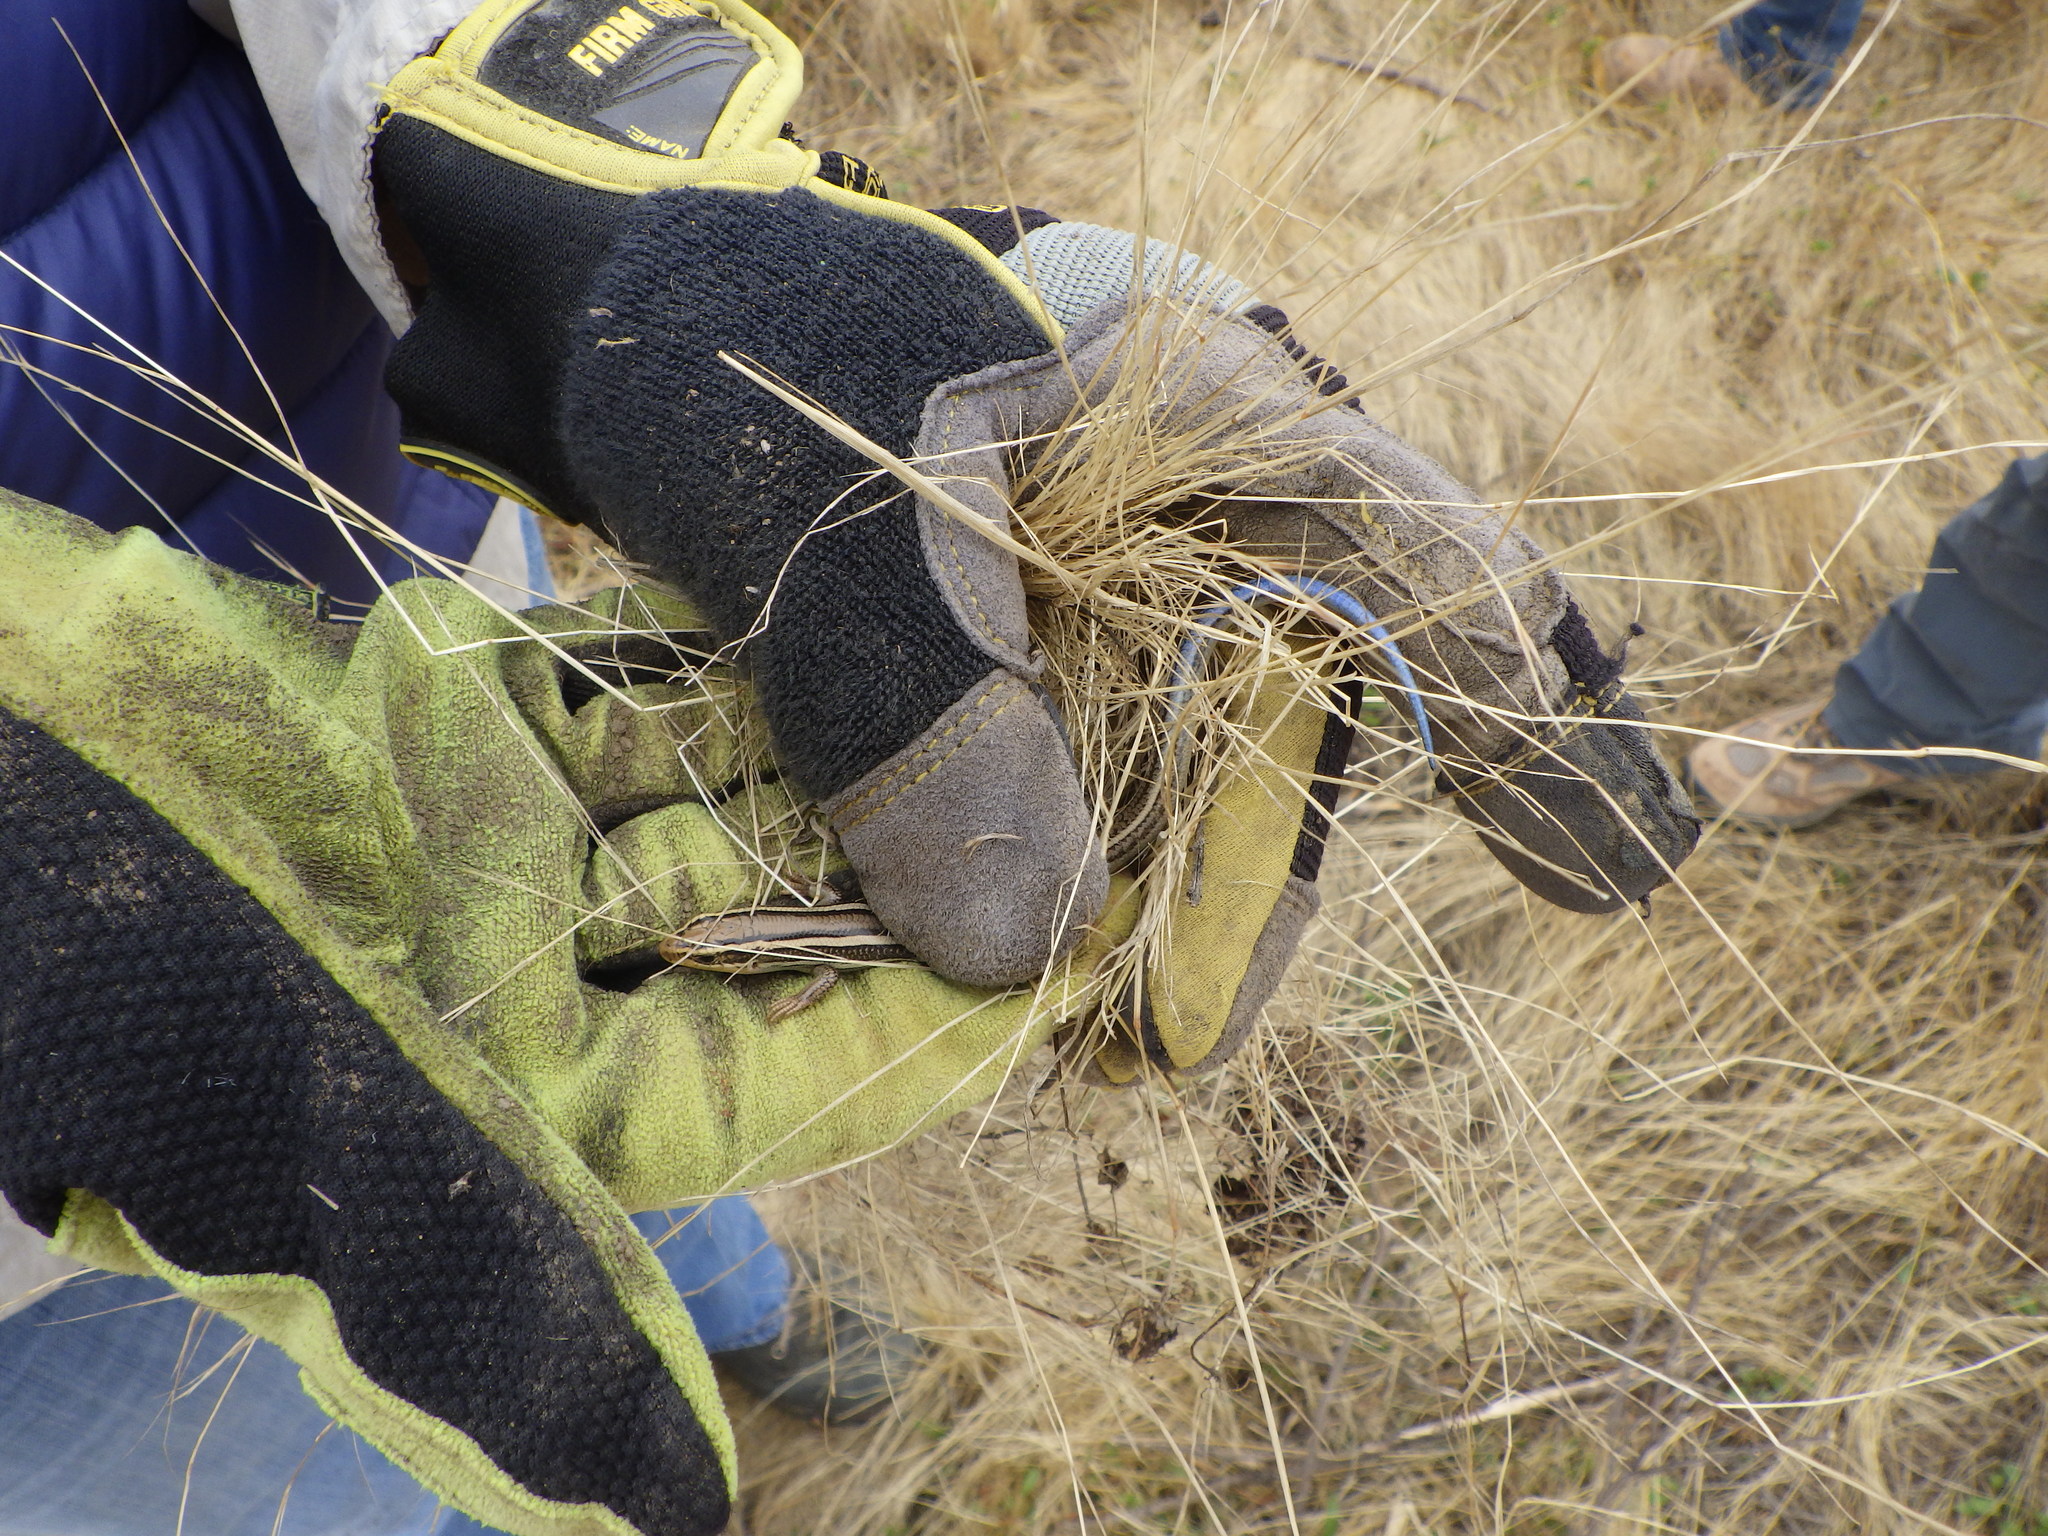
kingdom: Animalia
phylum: Chordata
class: Squamata
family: Scincidae
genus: Plestiodon
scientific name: Plestiodon skiltonianus
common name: Coronado island skink [interparietalis]
